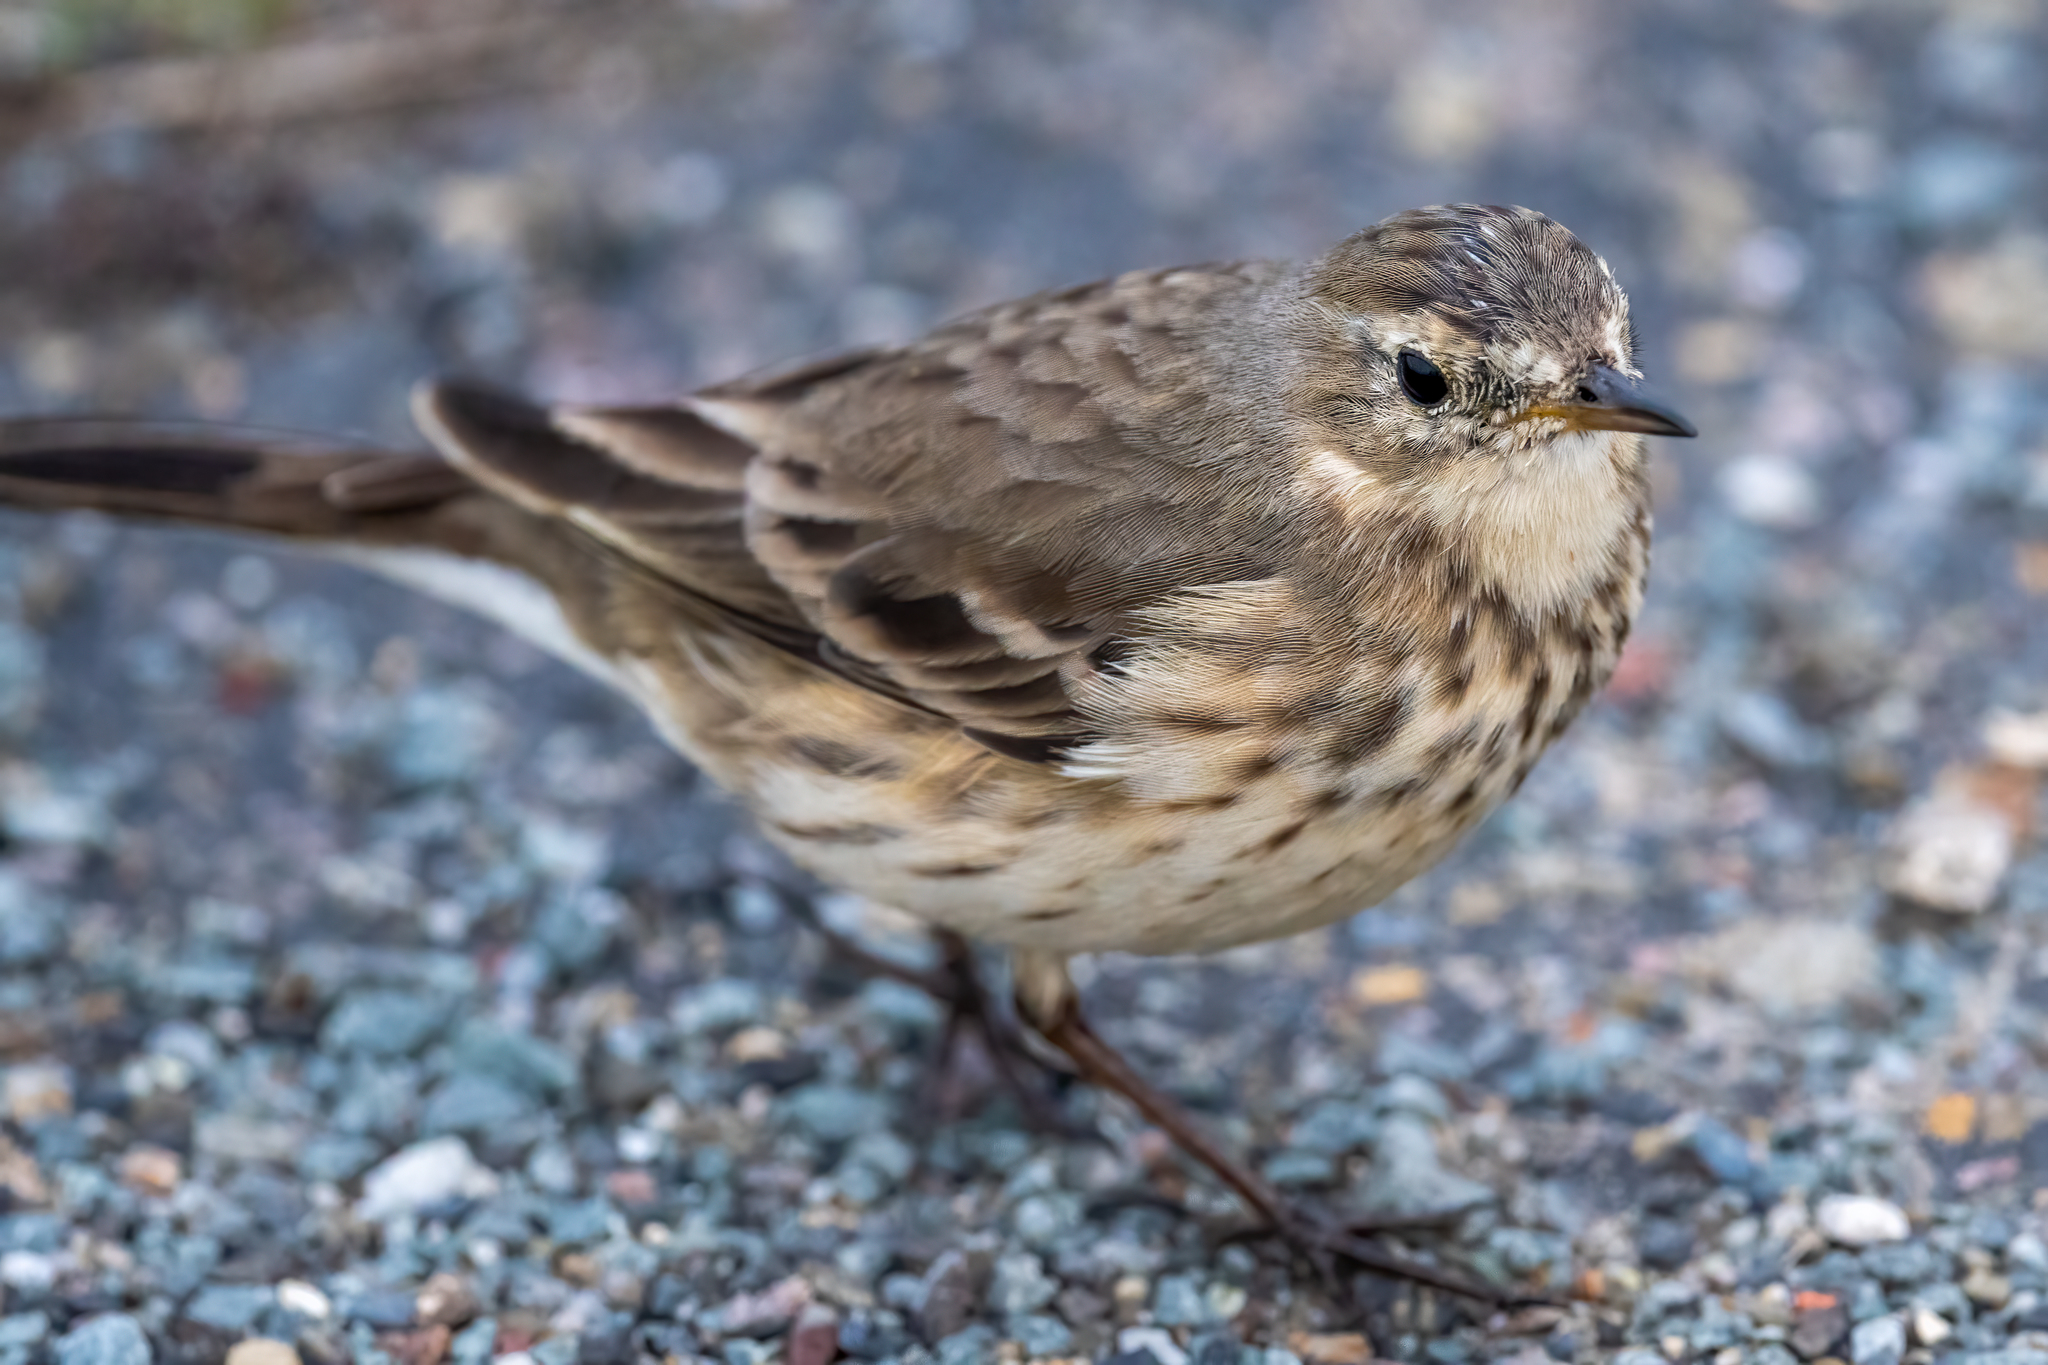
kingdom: Animalia
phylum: Chordata
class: Aves
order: Passeriformes
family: Motacillidae
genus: Anthus
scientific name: Anthus rubescens
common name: Buff-bellied pipit
